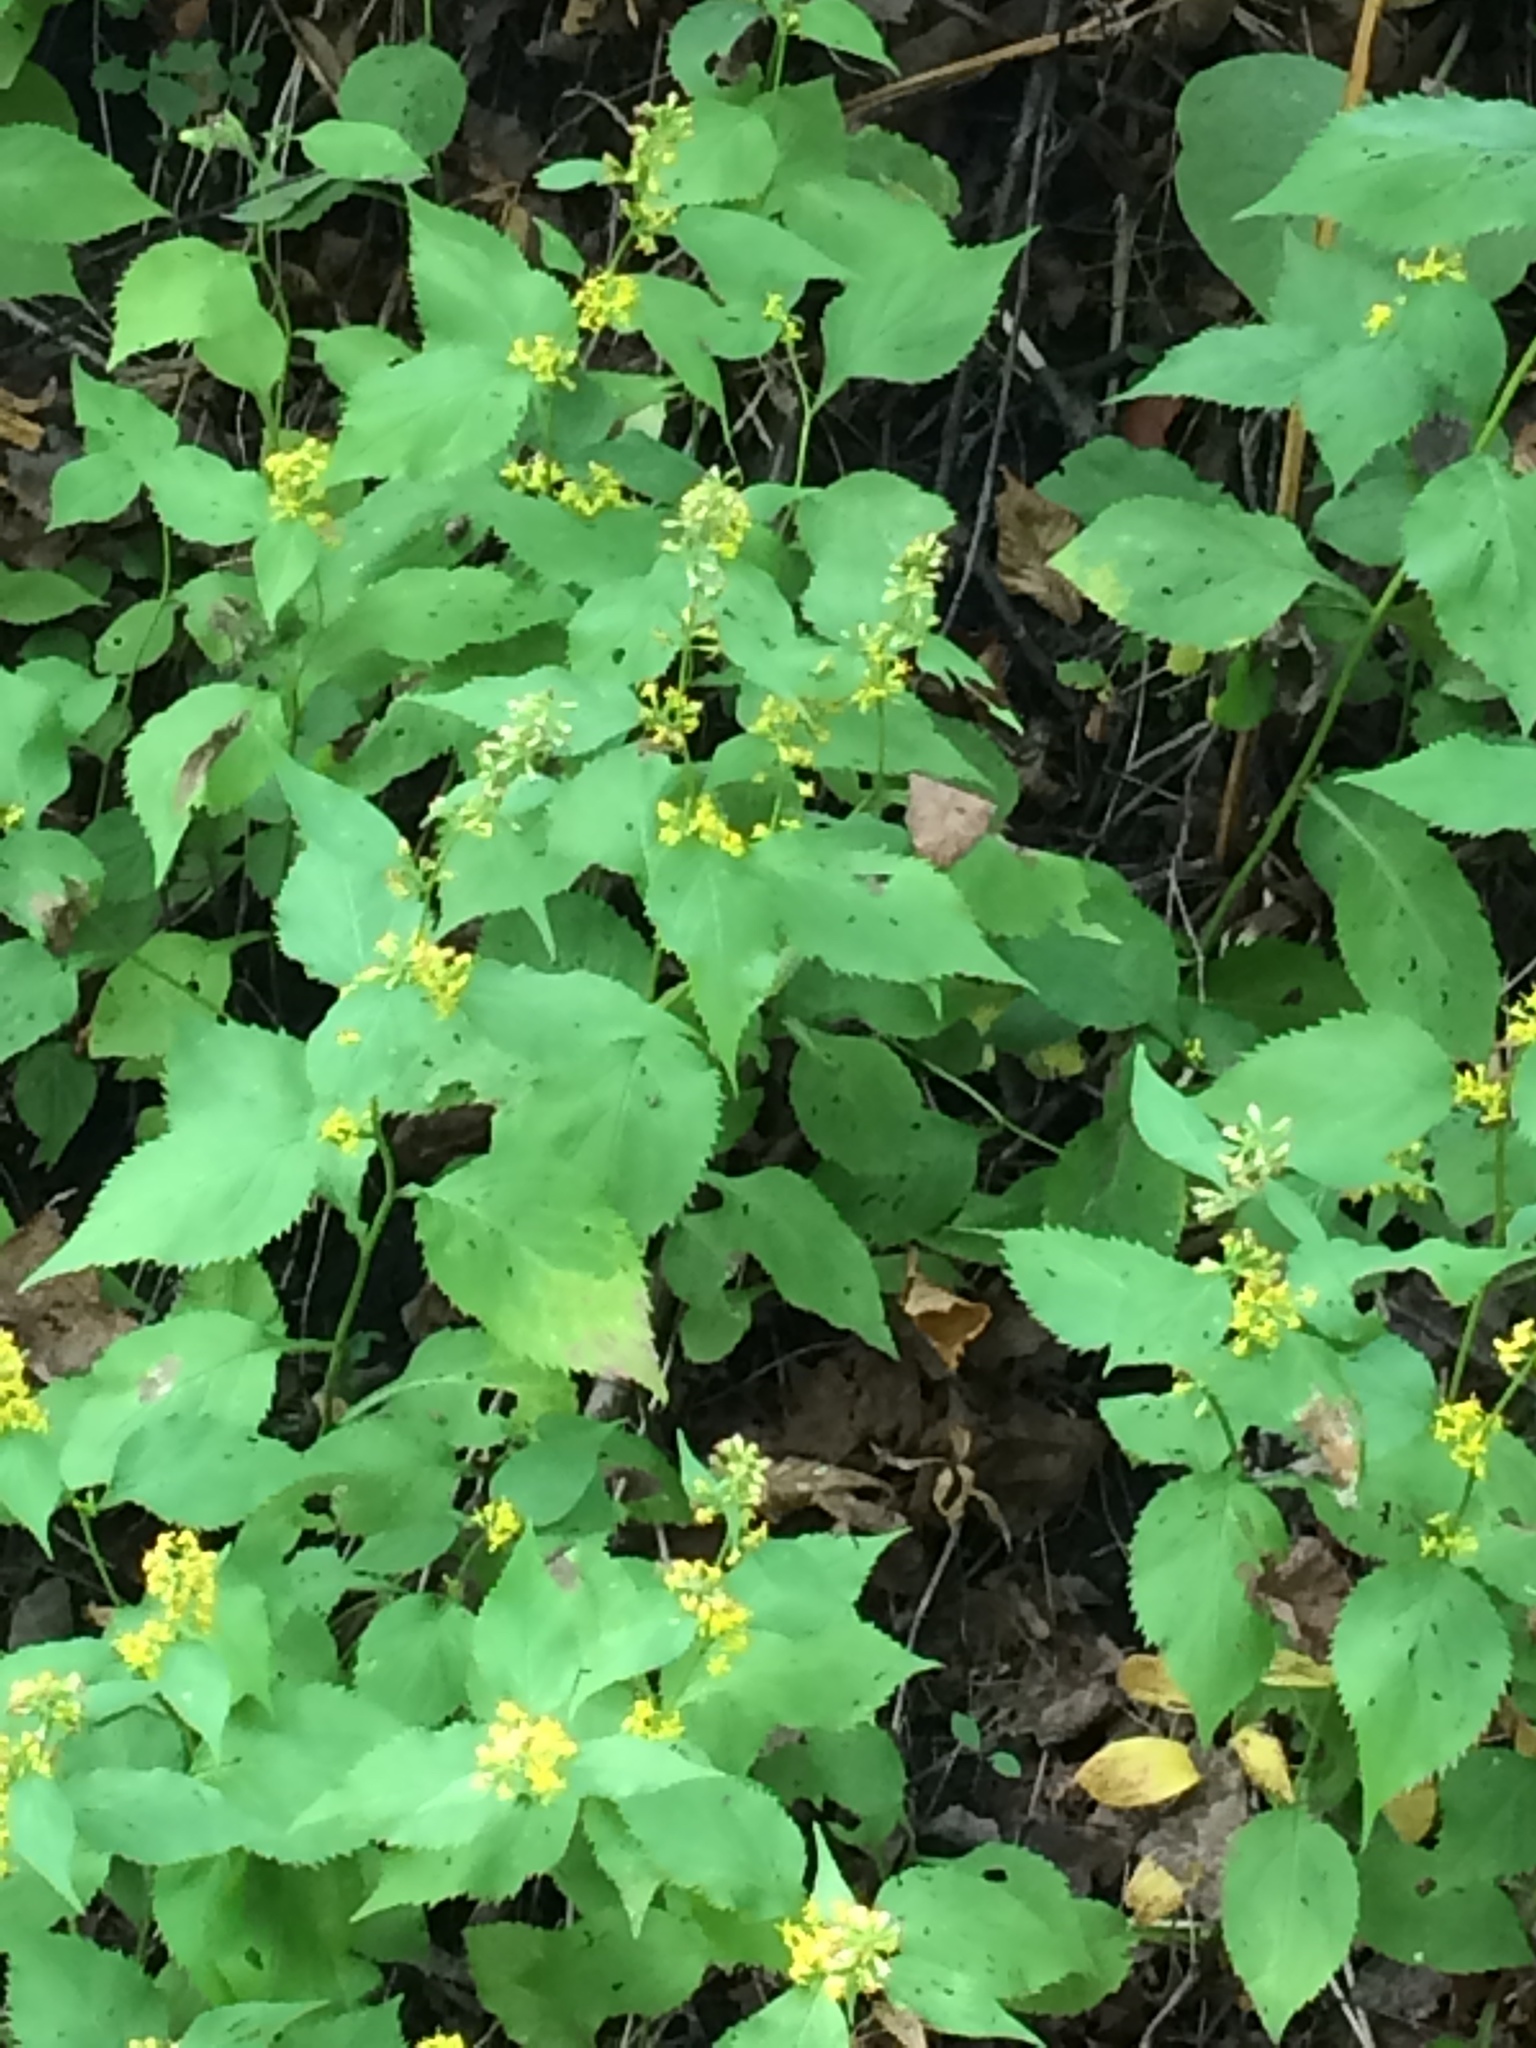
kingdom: Plantae
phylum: Tracheophyta
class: Magnoliopsida
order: Asterales
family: Asteraceae
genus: Solidago
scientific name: Solidago flexicaulis
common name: Zig-zag goldenrod
